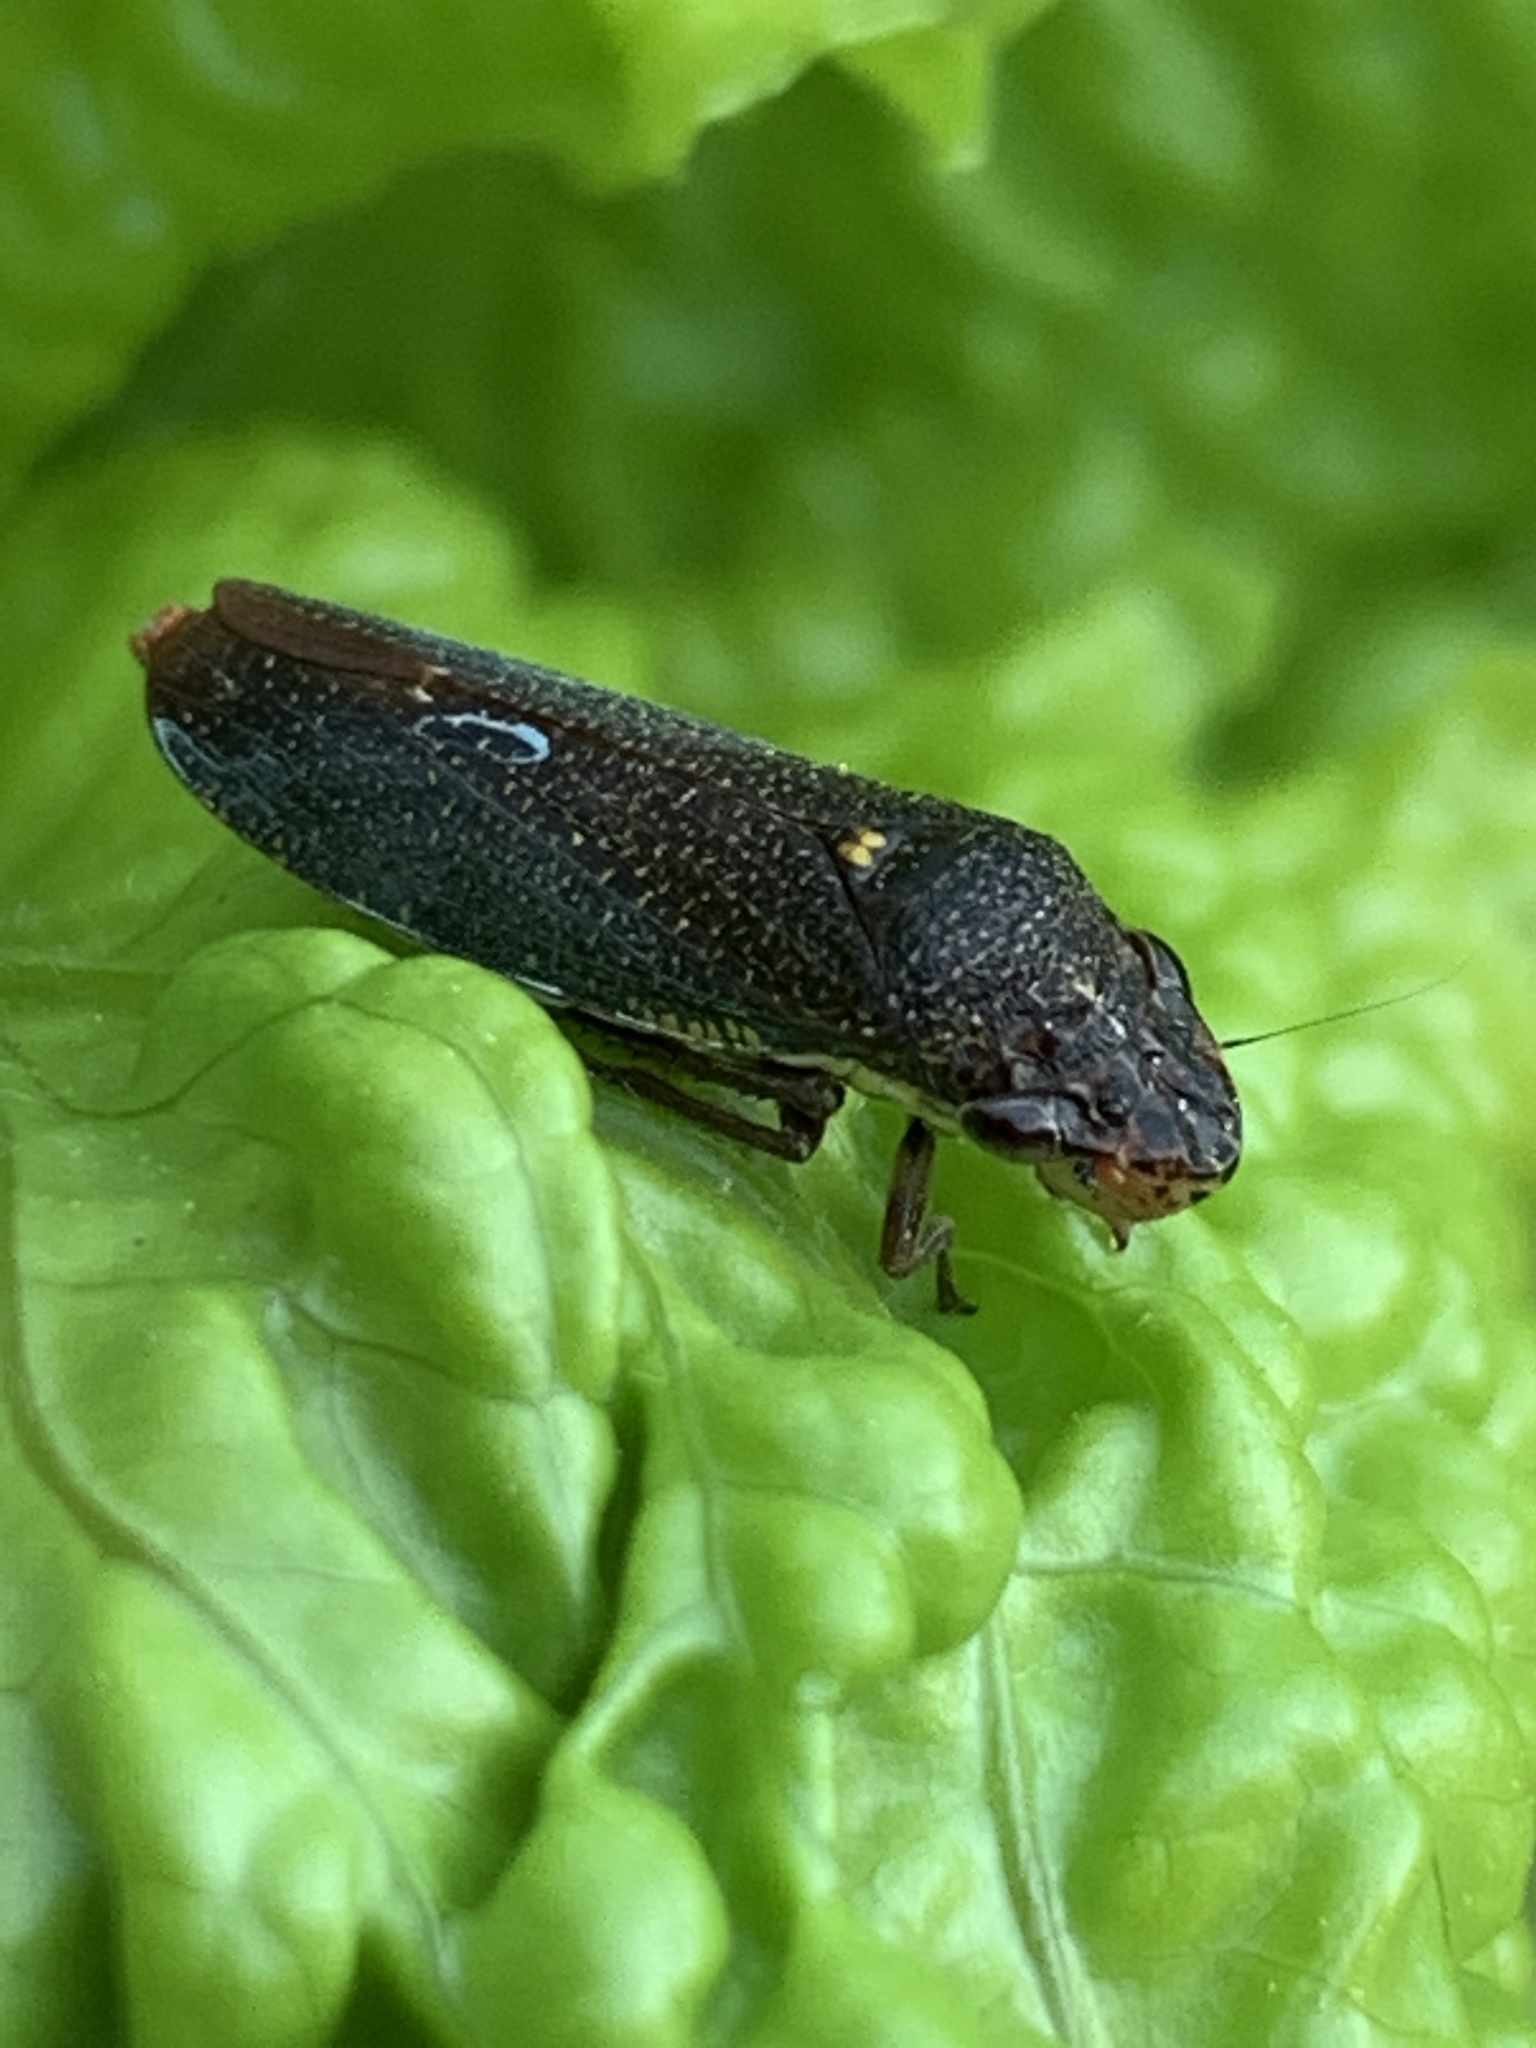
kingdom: Animalia
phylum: Arthropoda
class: Insecta
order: Hemiptera
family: Cicadellidae
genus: Paraulacizes
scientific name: Paraulacizes irrorata
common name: Speckled sharpshooter
